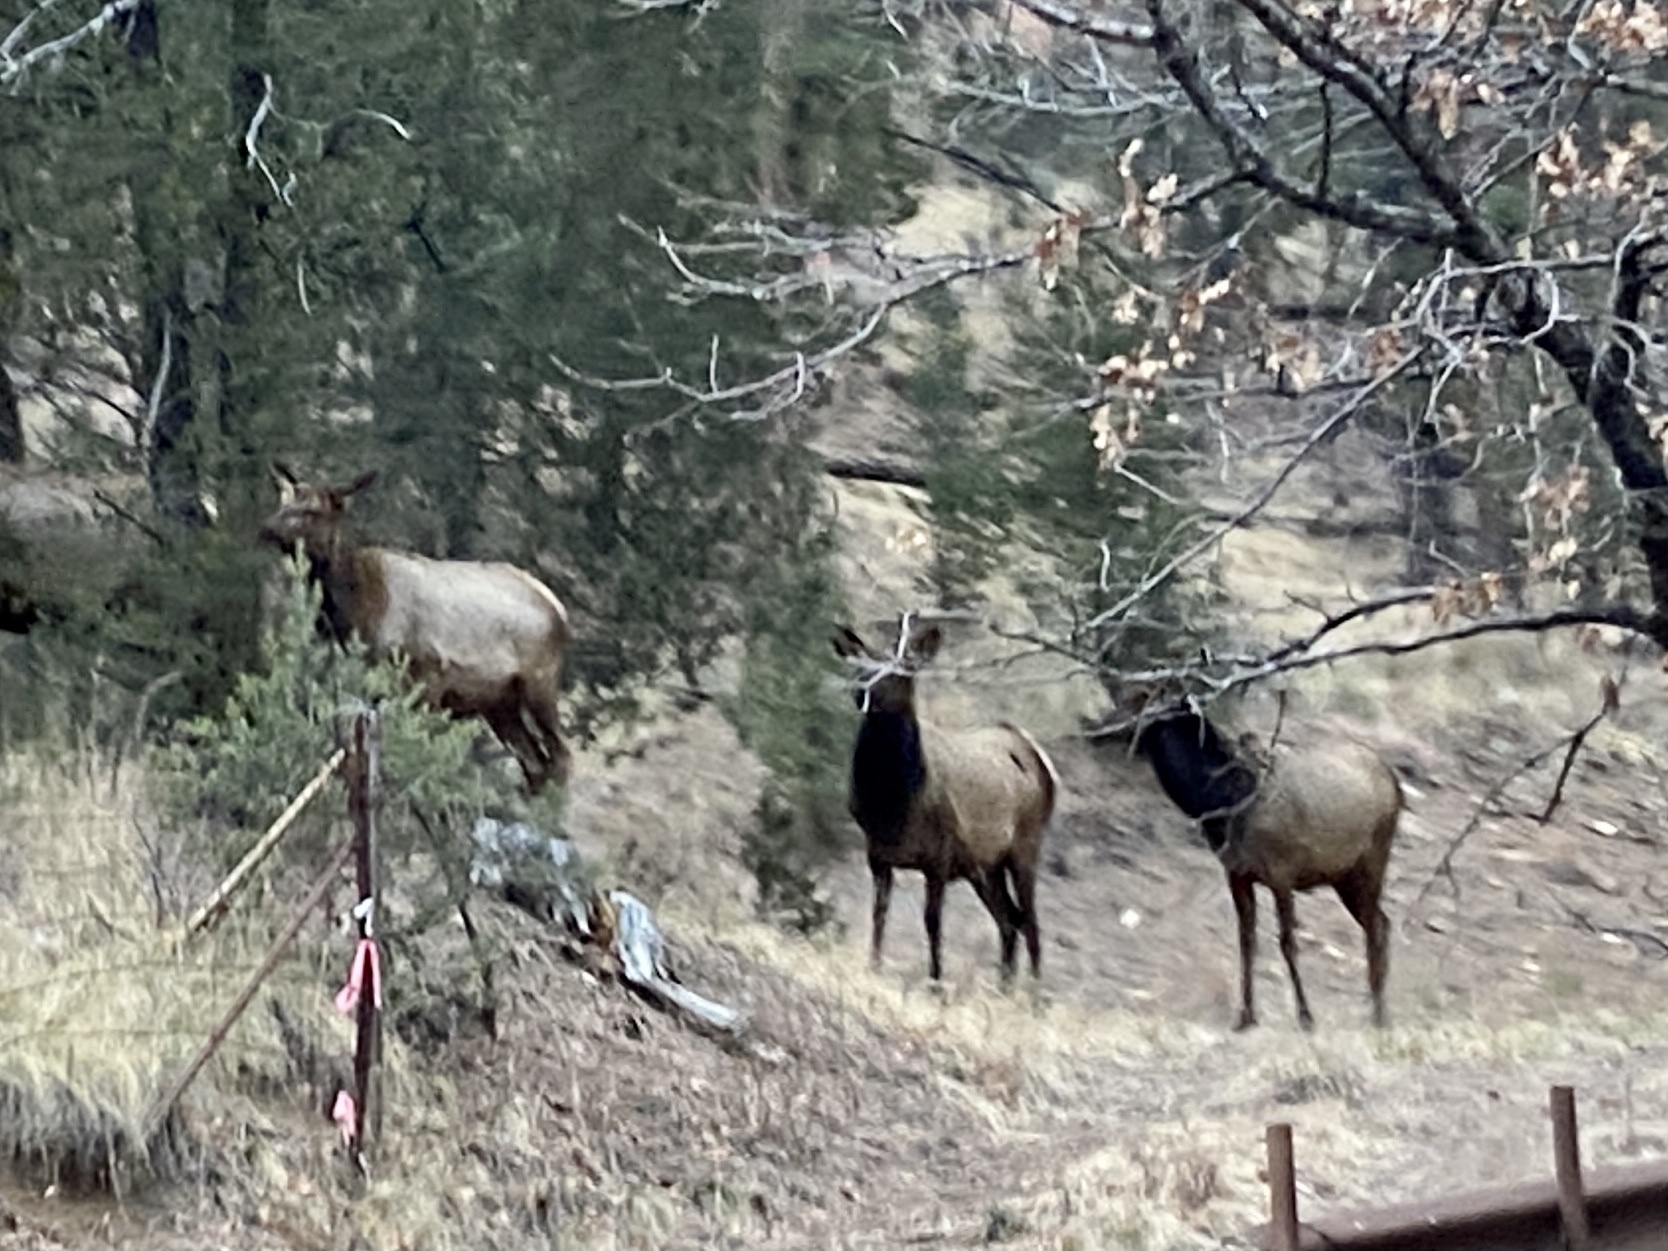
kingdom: Animalia
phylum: Chordata
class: Mammalia
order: Artiodactyla
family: Cervidae
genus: Cervus
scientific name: Cervus elaphus
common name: Red deer
